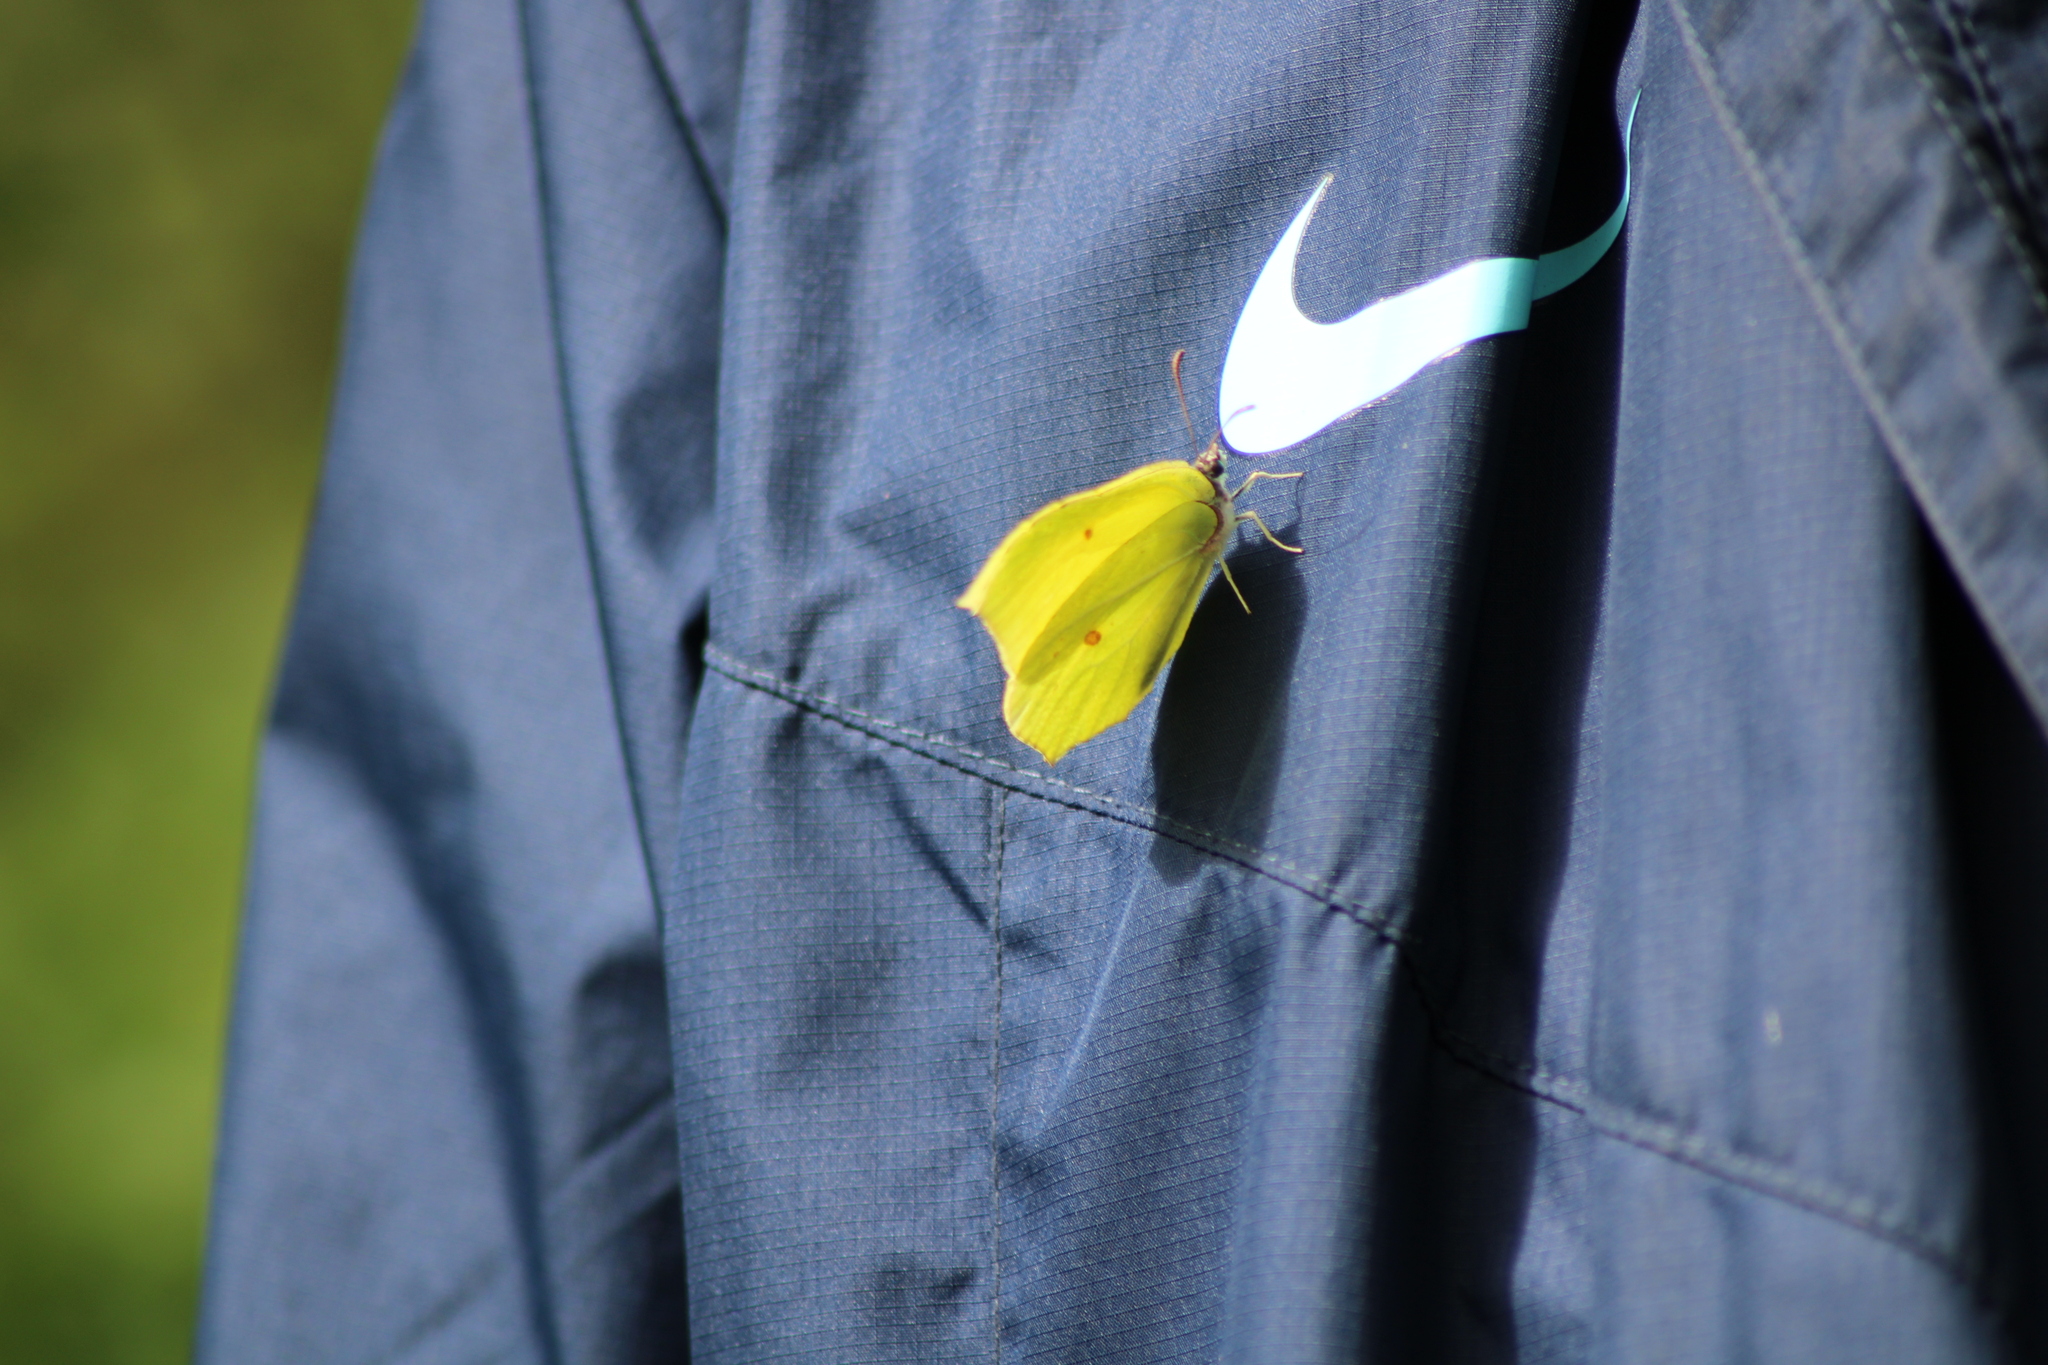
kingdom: Animalia
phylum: Arthropoda
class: Insecta
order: Lepidoptera
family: Pieridae
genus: Gonepteryx
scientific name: Gonepteryx rhamni
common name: Brimstone
